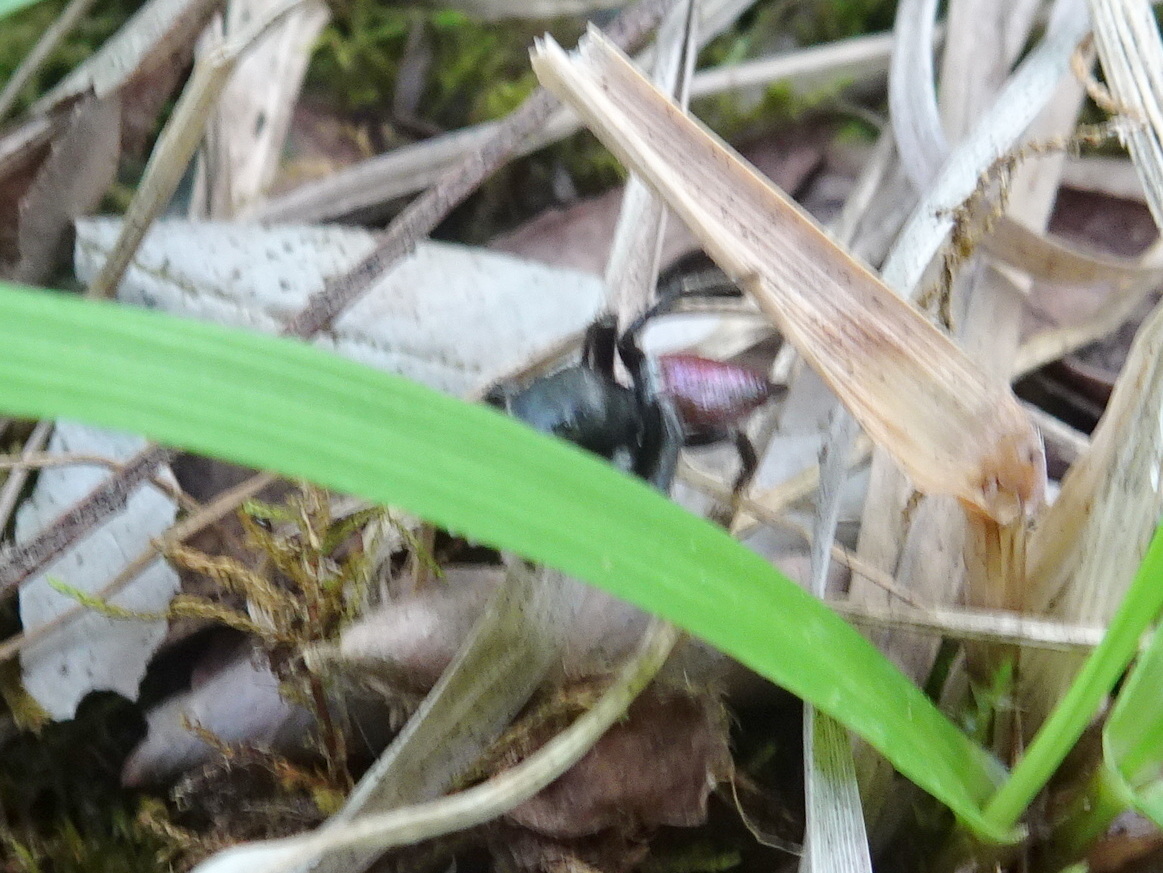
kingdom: Animalia
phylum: Arthropoda
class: Arachnida
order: Araneae
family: Salticidae
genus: Habronattus
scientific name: Habronattus decorus
